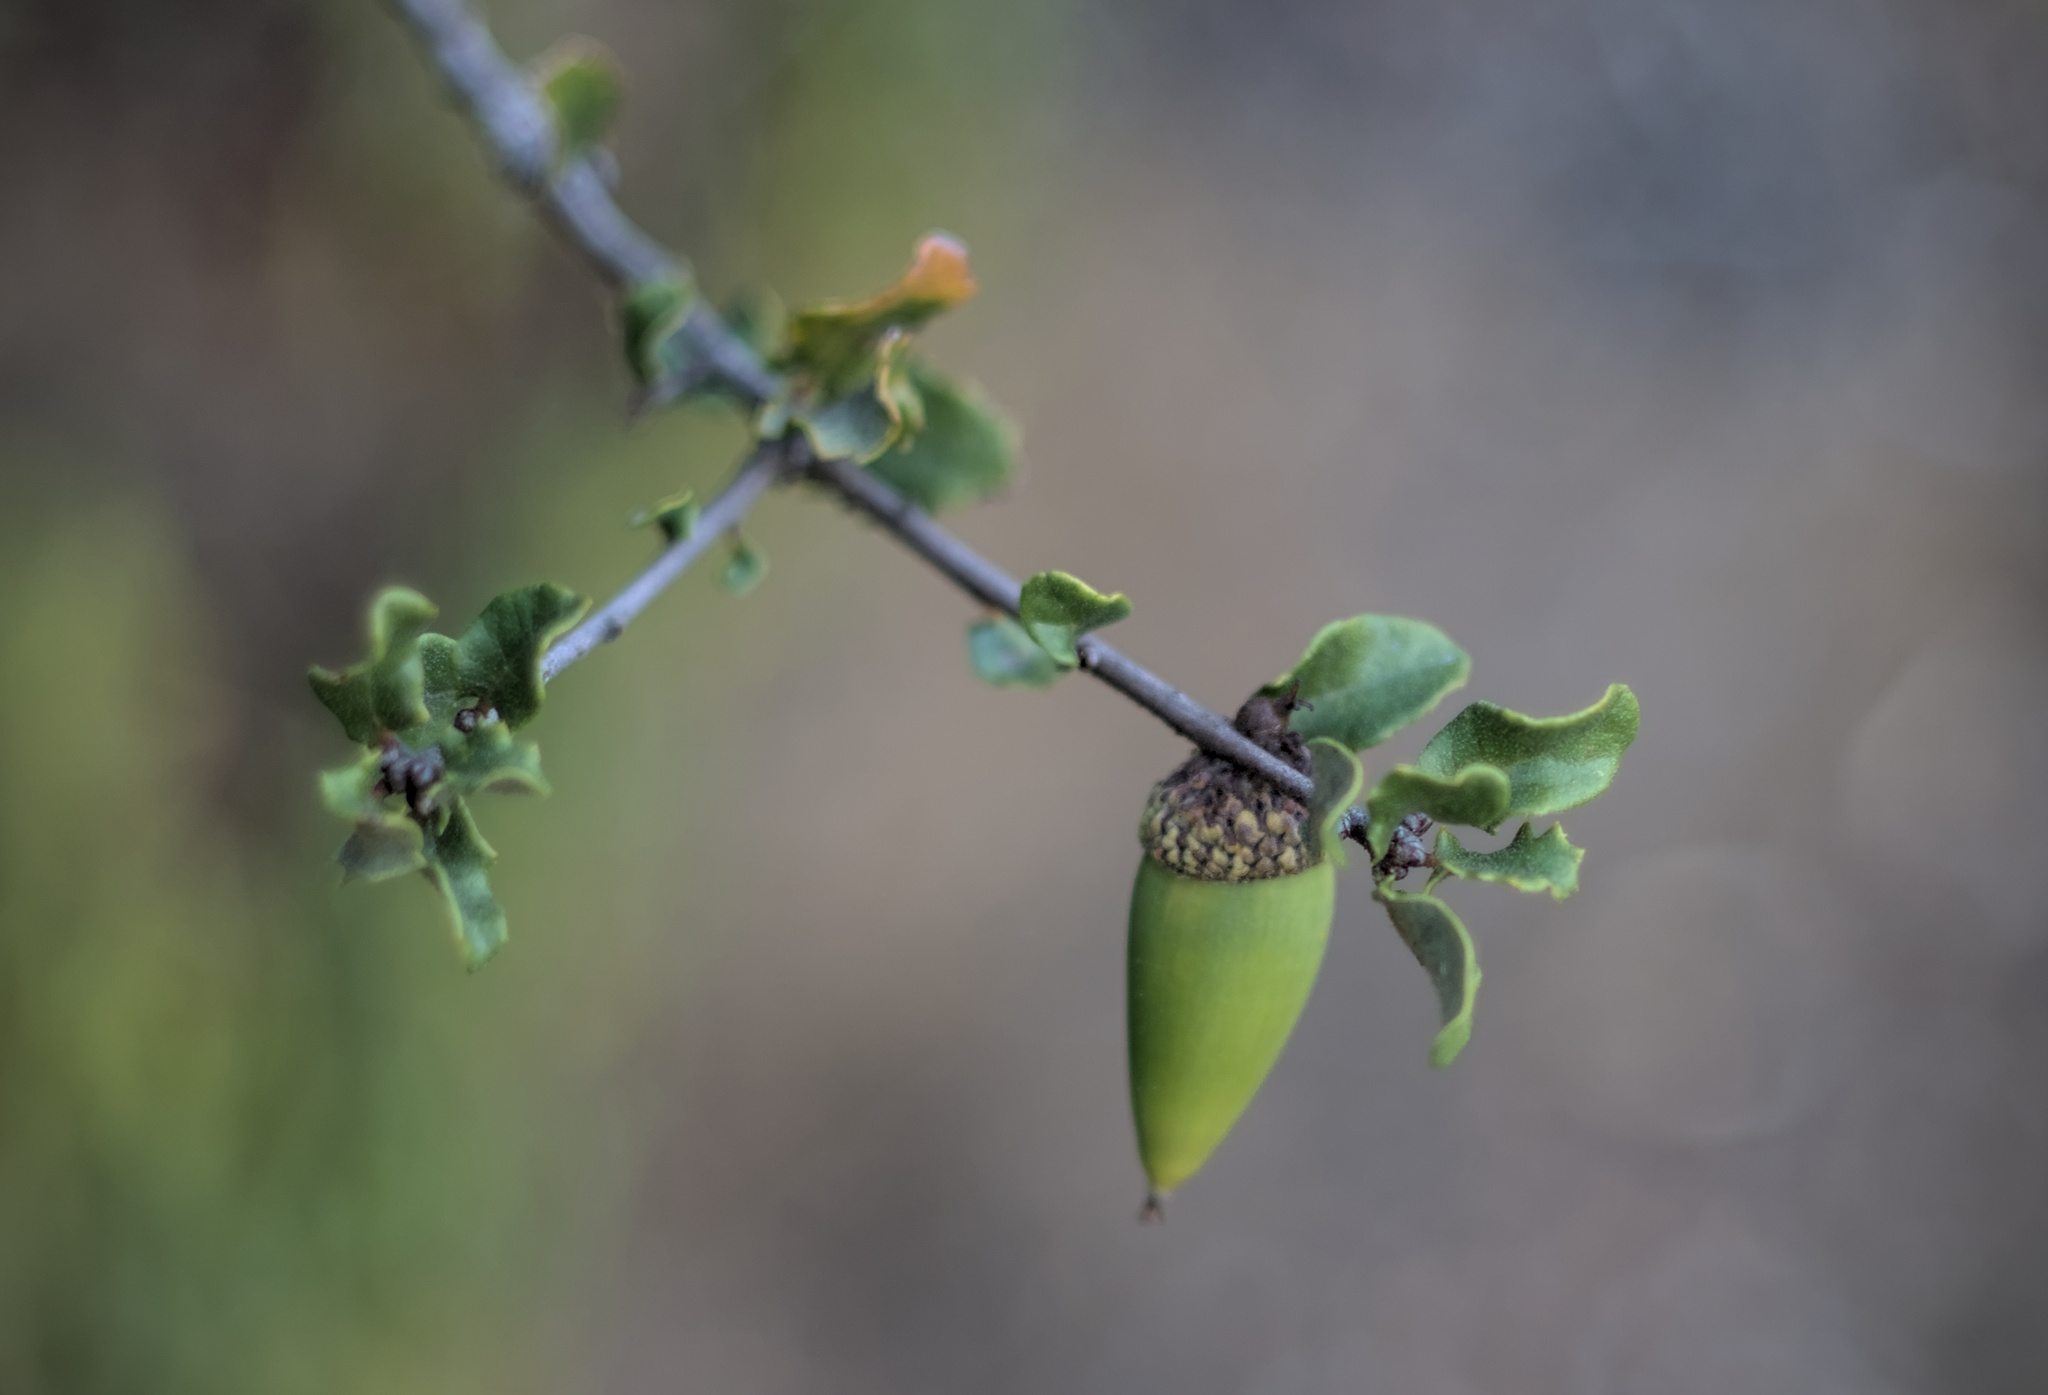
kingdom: Plantae
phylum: Tracheophyta
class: Magnoliopsida
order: Fagales
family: Fagaceae
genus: Quercus
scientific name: Quercus dumosa
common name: Coastal sage scrub oak
